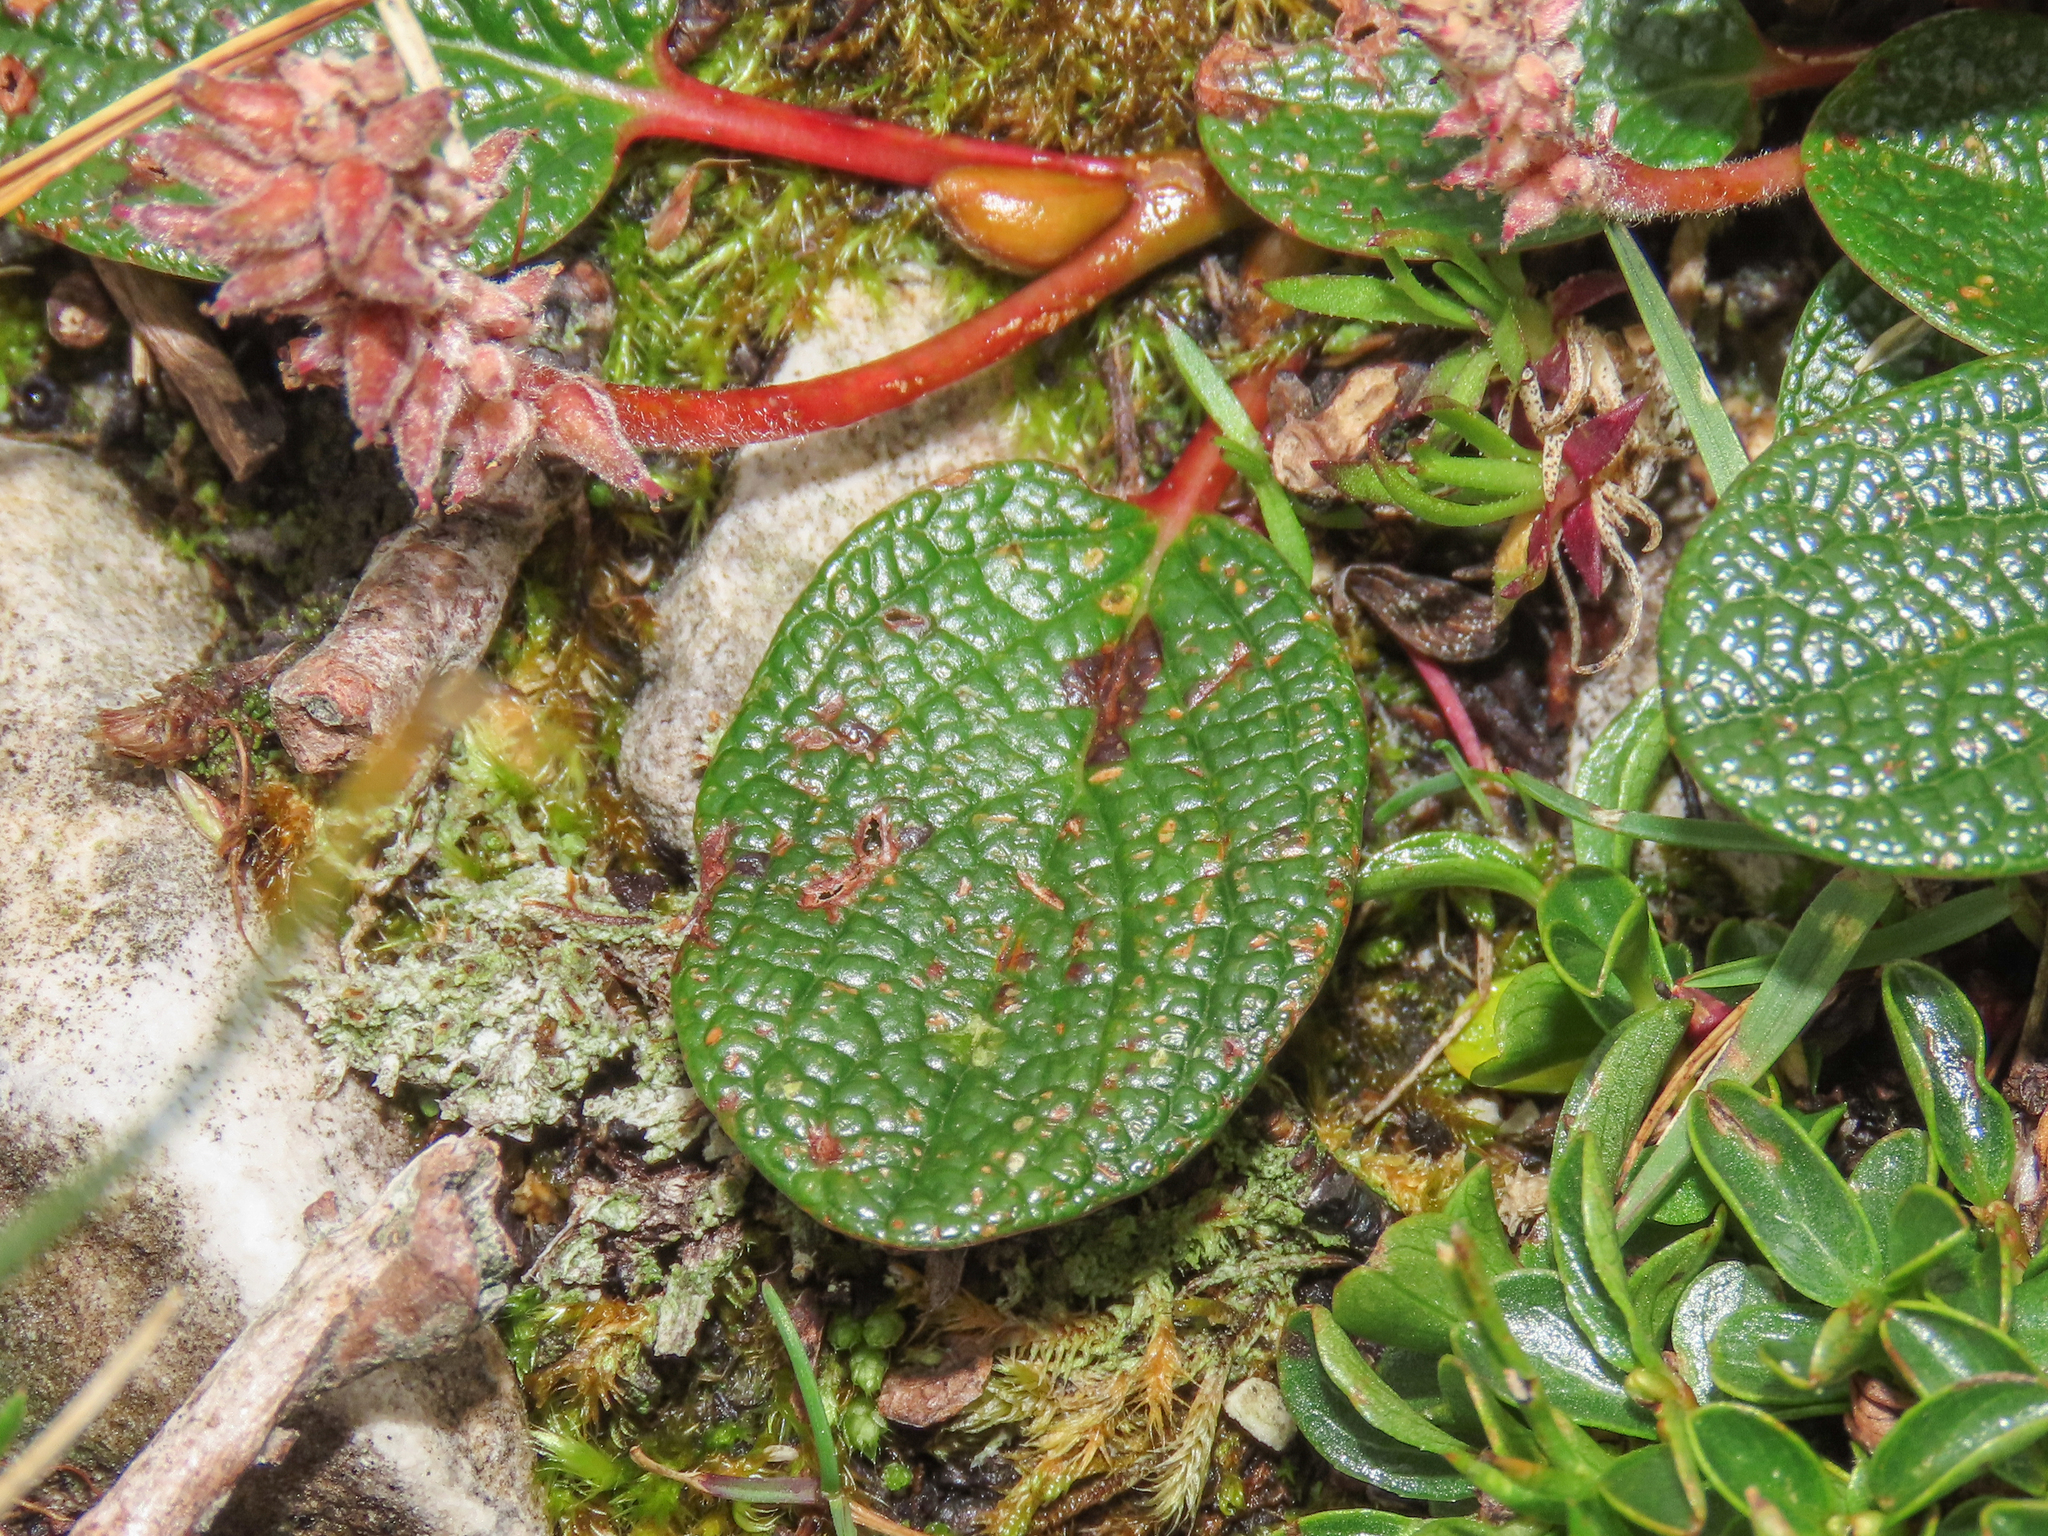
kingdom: Plantae
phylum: Tracheophyta
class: Magnoliopsida
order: Malpighiales
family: Salicaceae
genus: Salix
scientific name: Salix reticulata
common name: Net-leaved willow
